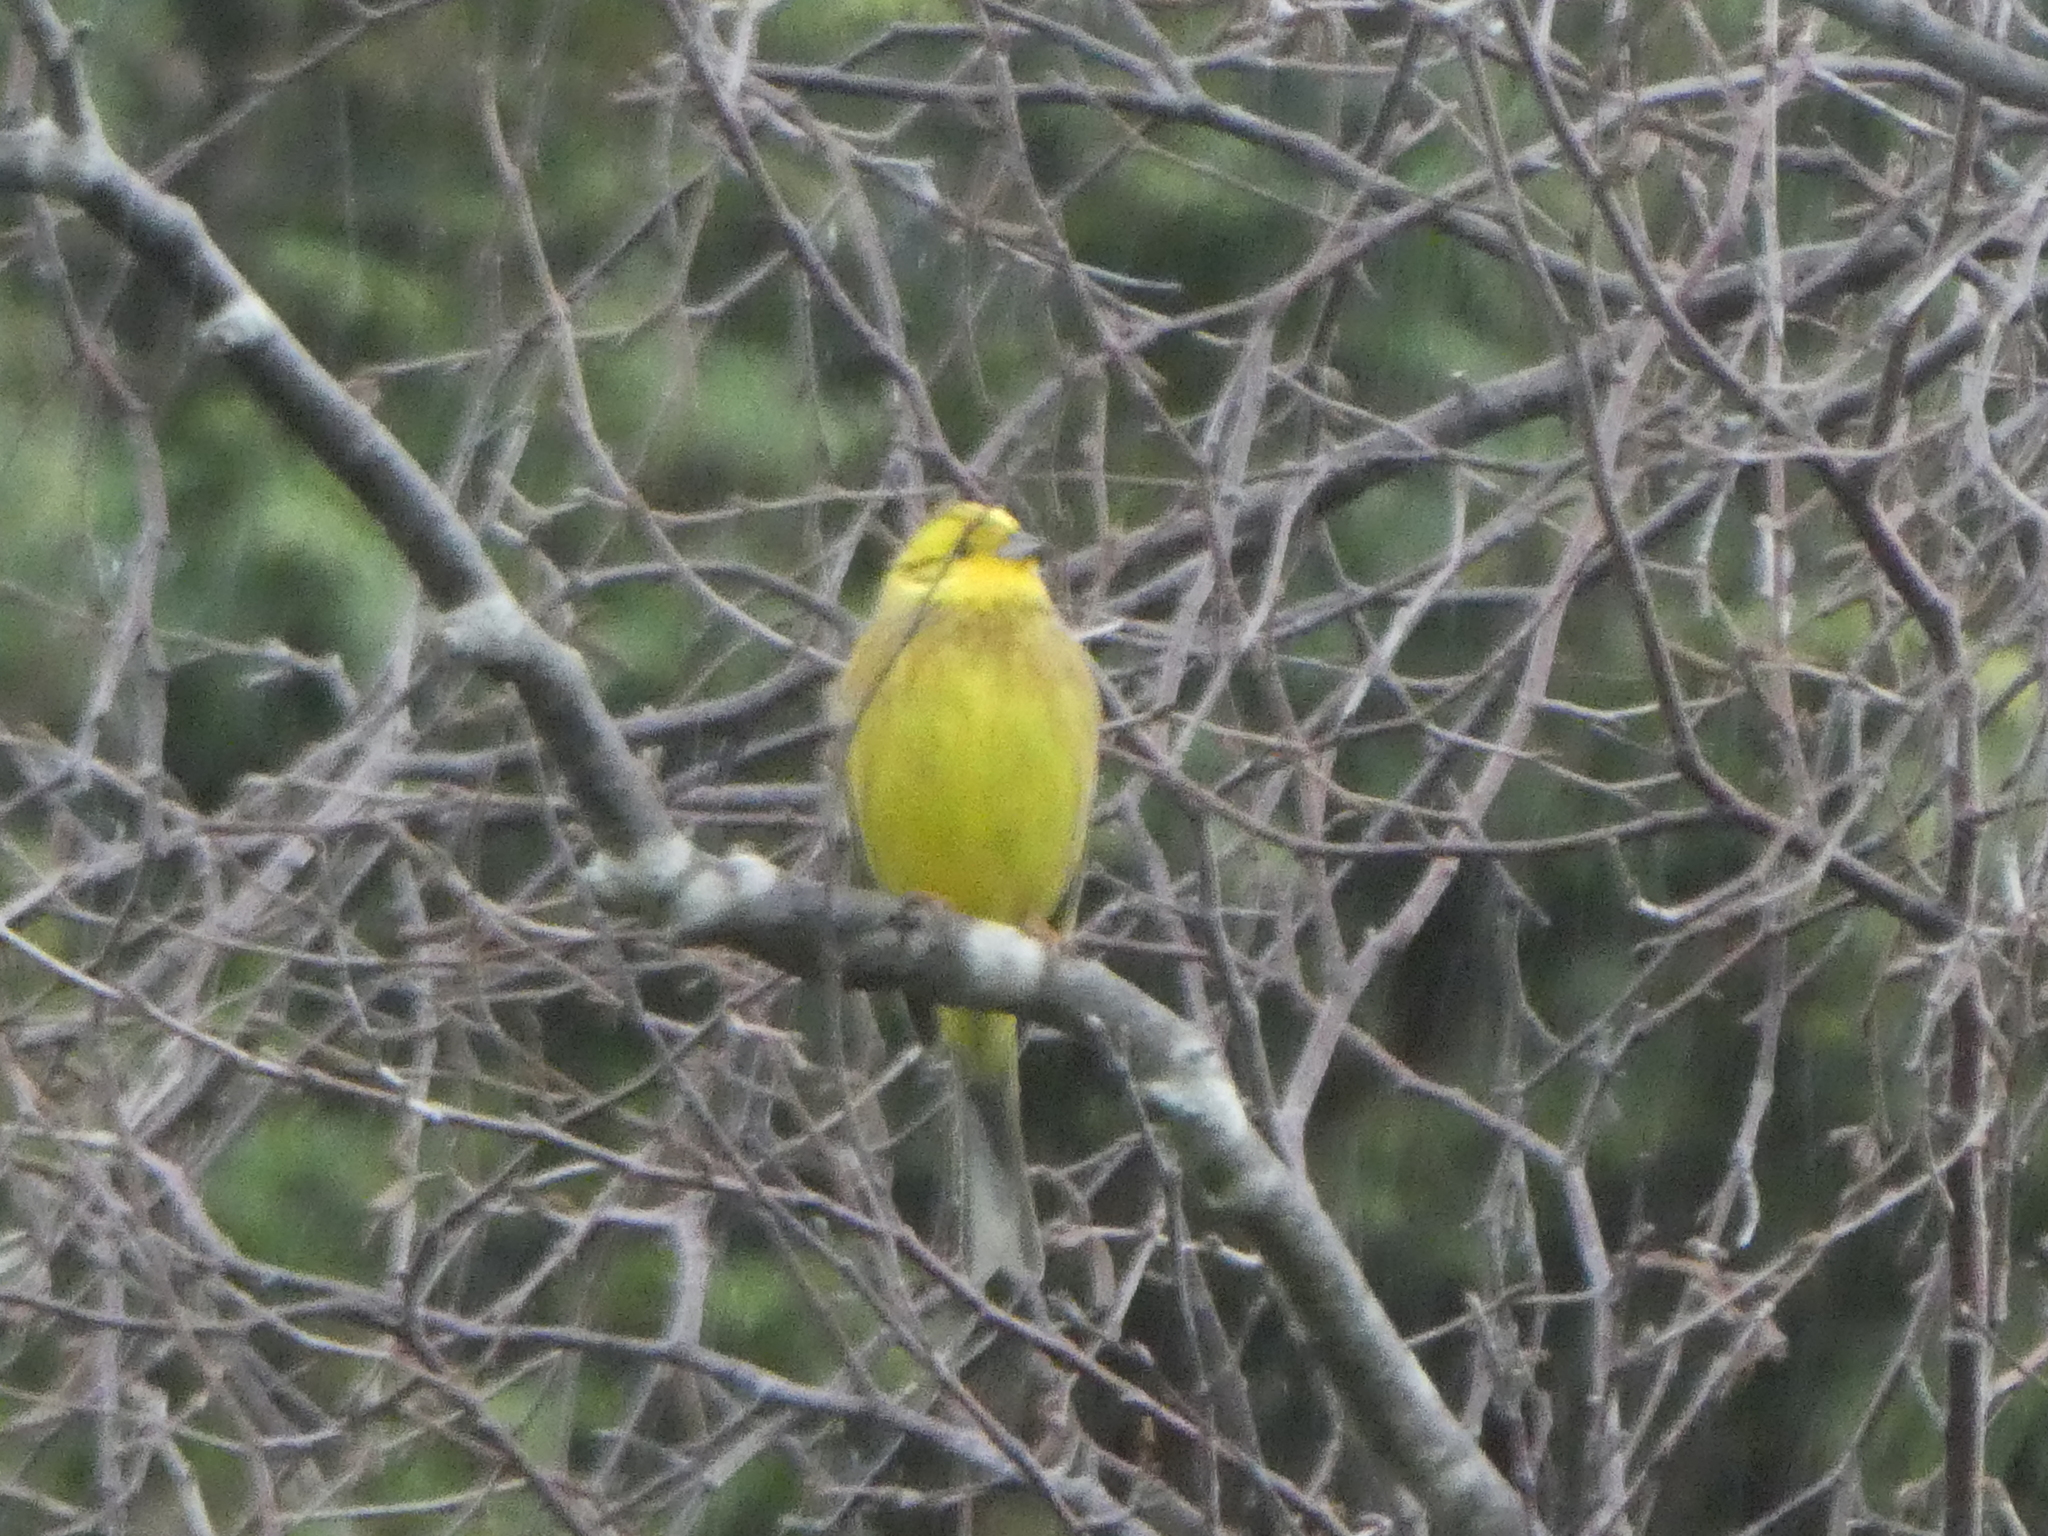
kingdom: Animalia
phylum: Chordata
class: Aves
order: Passeriformes
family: Emberizidae
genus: Emberiza
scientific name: Emberiza citrinella
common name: Yellowhammer
